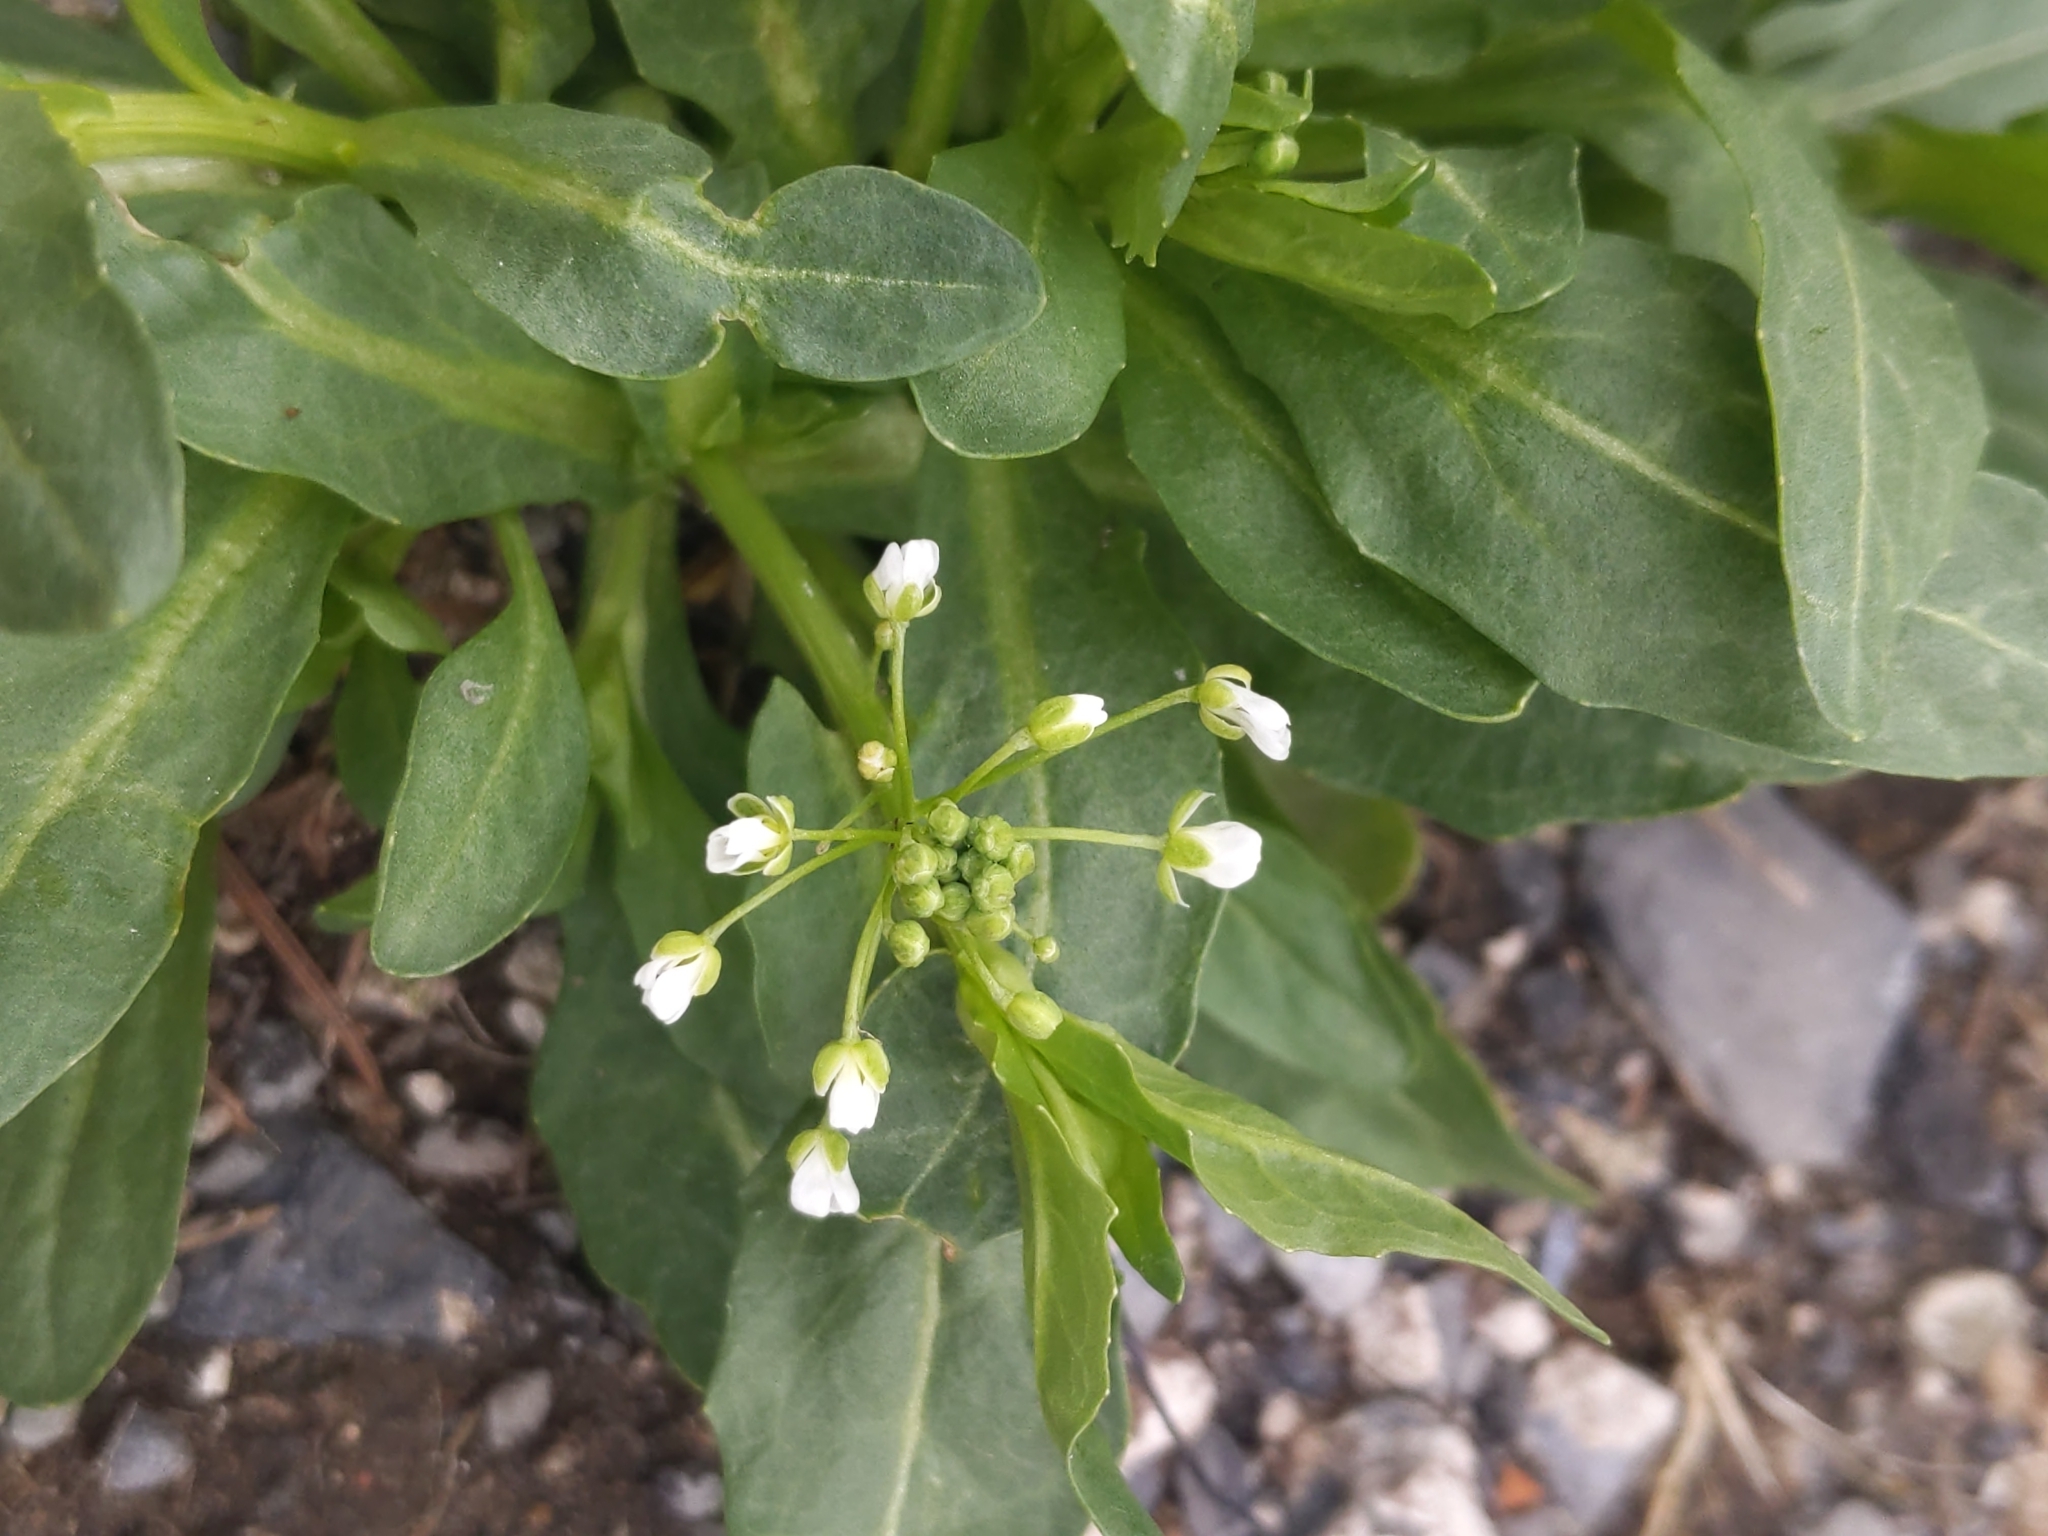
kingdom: Plantae
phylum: Tracheophyta
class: Magnoliopsida
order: Brassicales
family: Brassicaceae
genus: Thlaspi
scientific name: Thlaspi arvense
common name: Field pennycress
